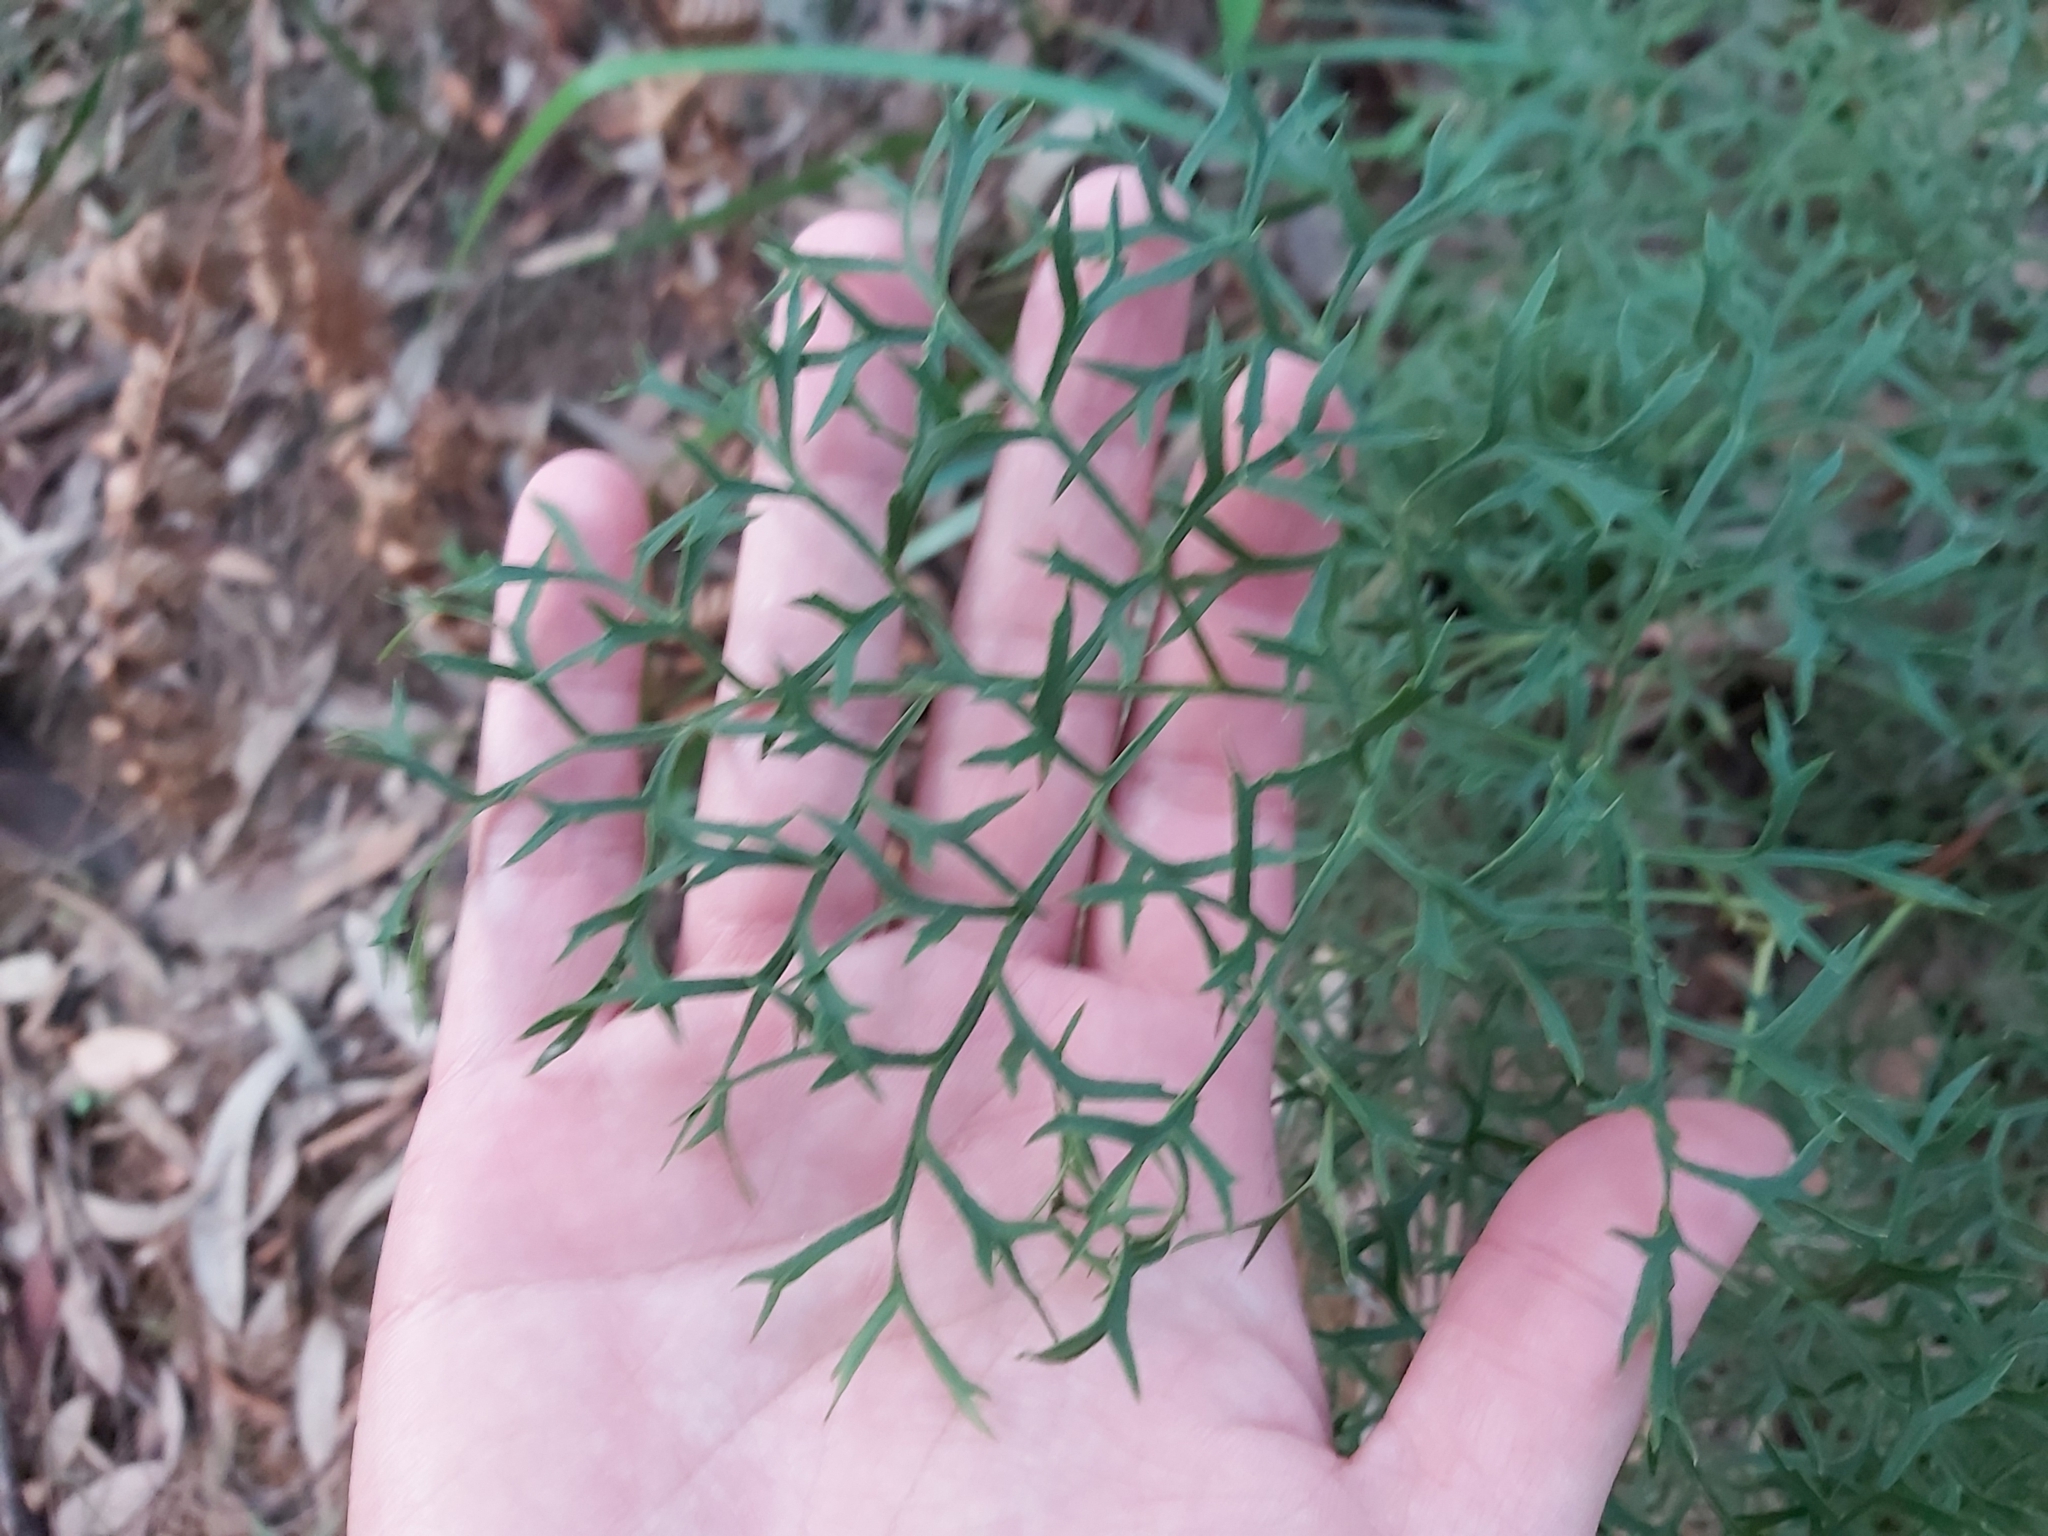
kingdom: Plantae
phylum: Tracheophyta
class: Magnoliopsida
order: Proteales
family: Proteaceae
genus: Lomatia
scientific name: Lomatia silaifolia
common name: Crinklebush
